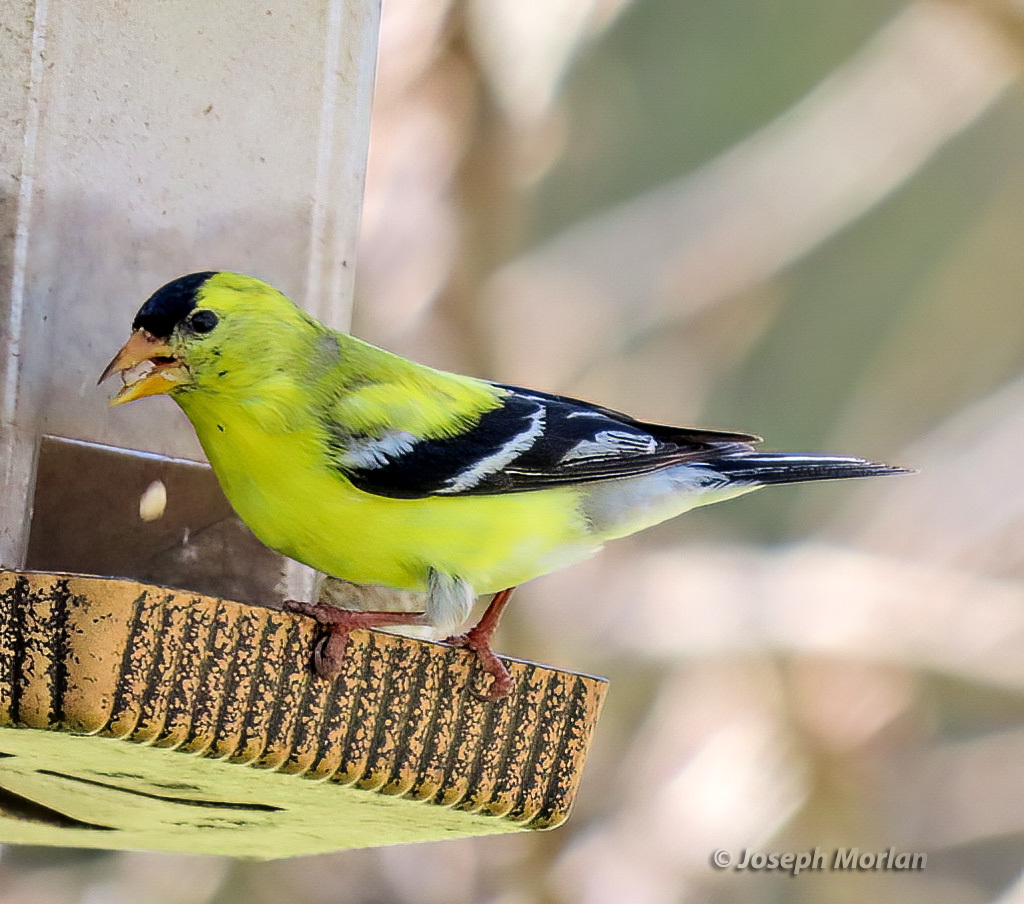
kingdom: Animalia
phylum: Chordata
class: Aves
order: Passeriformes
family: Fringillidae
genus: Spinus
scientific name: Spinus tristis
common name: American goldfinch
